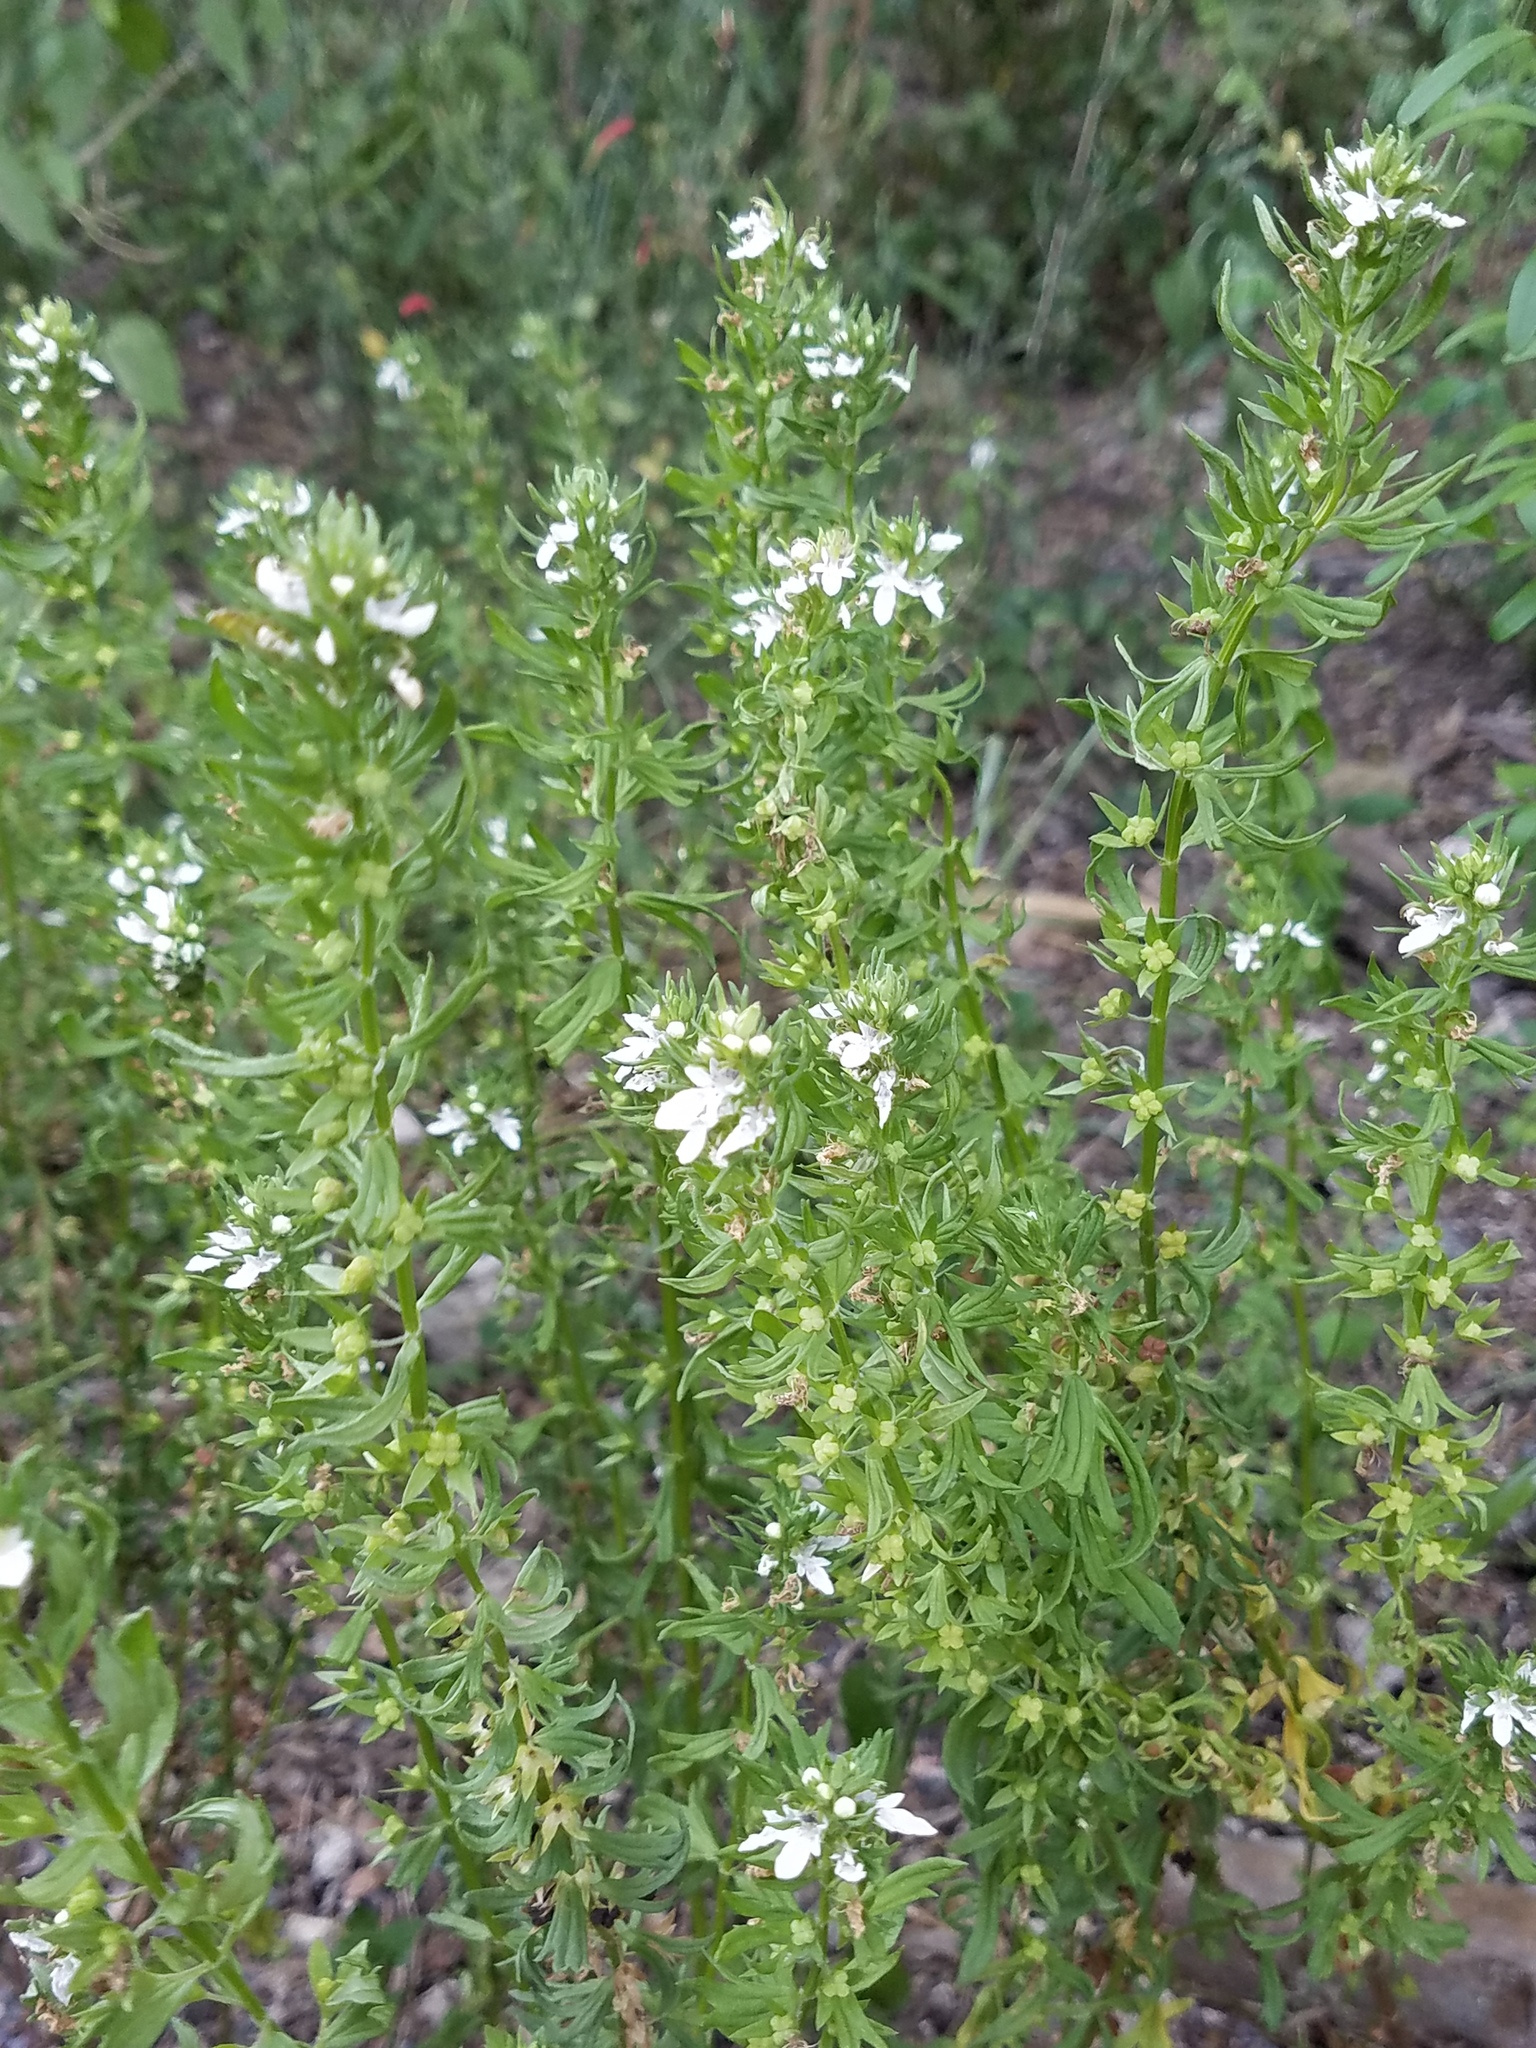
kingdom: Plantae
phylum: Tracheophyta
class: Magnoliopsida
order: Lamiales
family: Lamiaceae
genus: Teucrium
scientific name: Teucrium cubense
